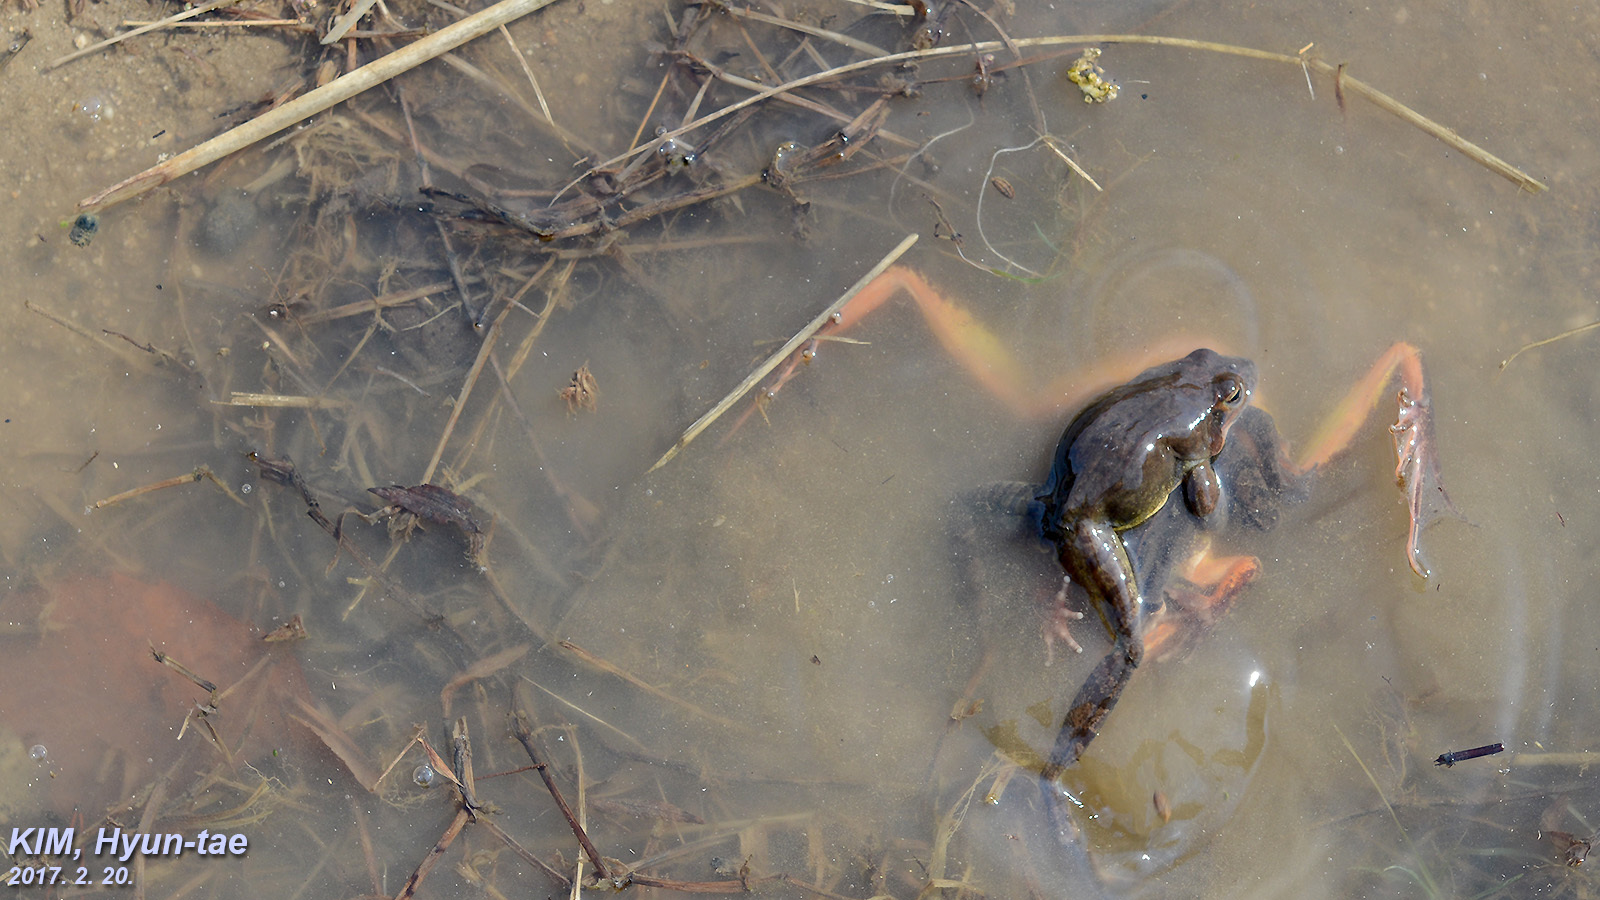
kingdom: Animalia
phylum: Chordata
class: Amphibia
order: Anura
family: Ranidae
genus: Rana
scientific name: Rana uenoi
